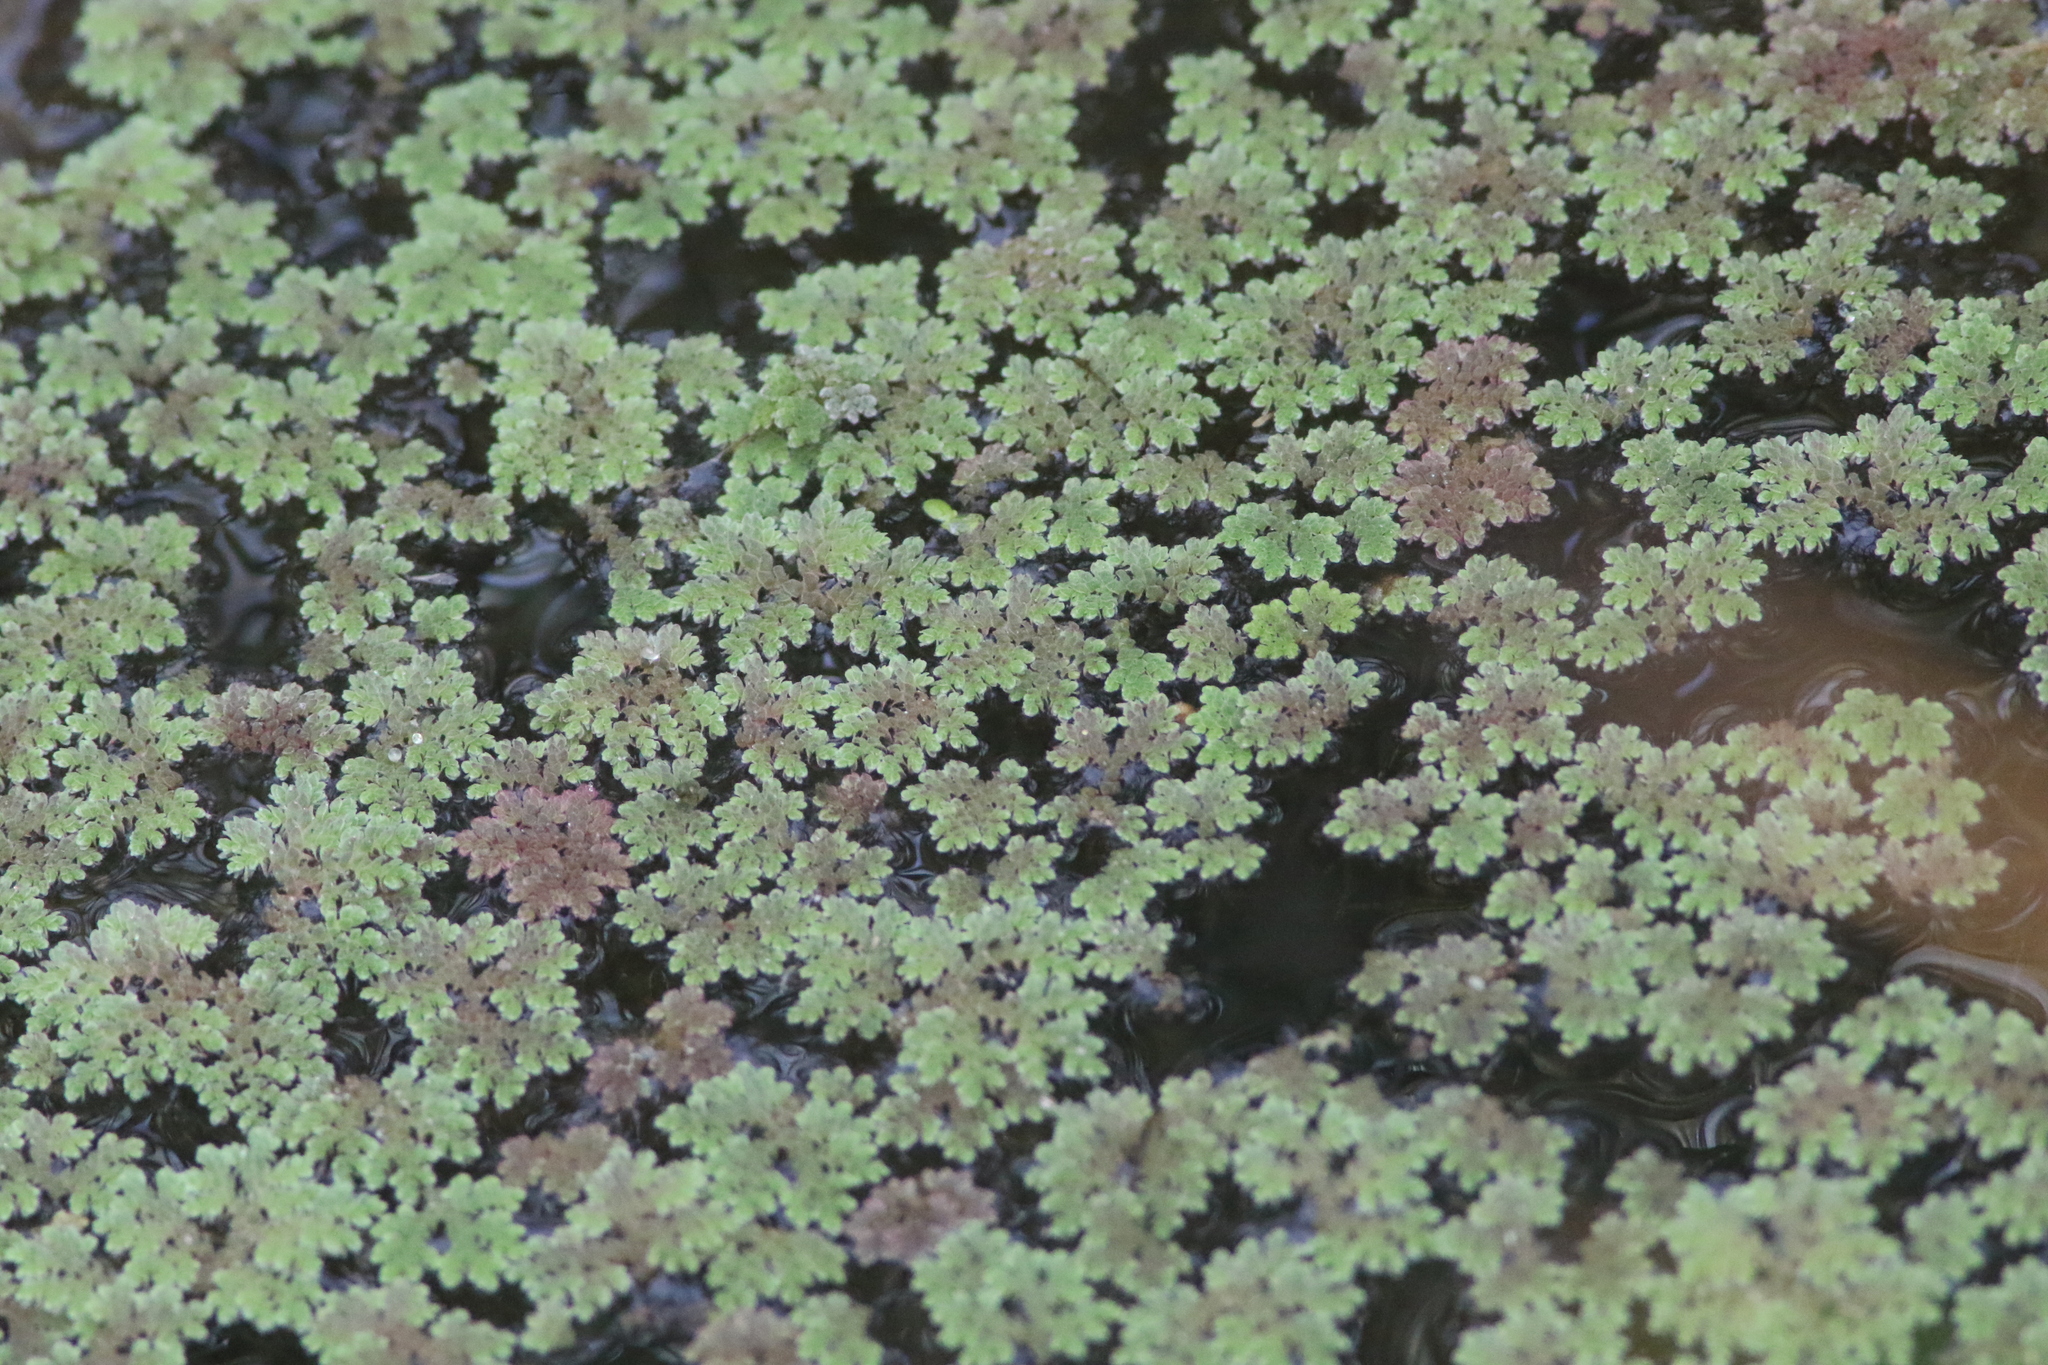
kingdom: Plantae
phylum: Tracheophyta
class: Polypodiopsida
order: Salviniales
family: Salviniaceae
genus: Azolla
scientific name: Azolla filiculoides
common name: Water fern
